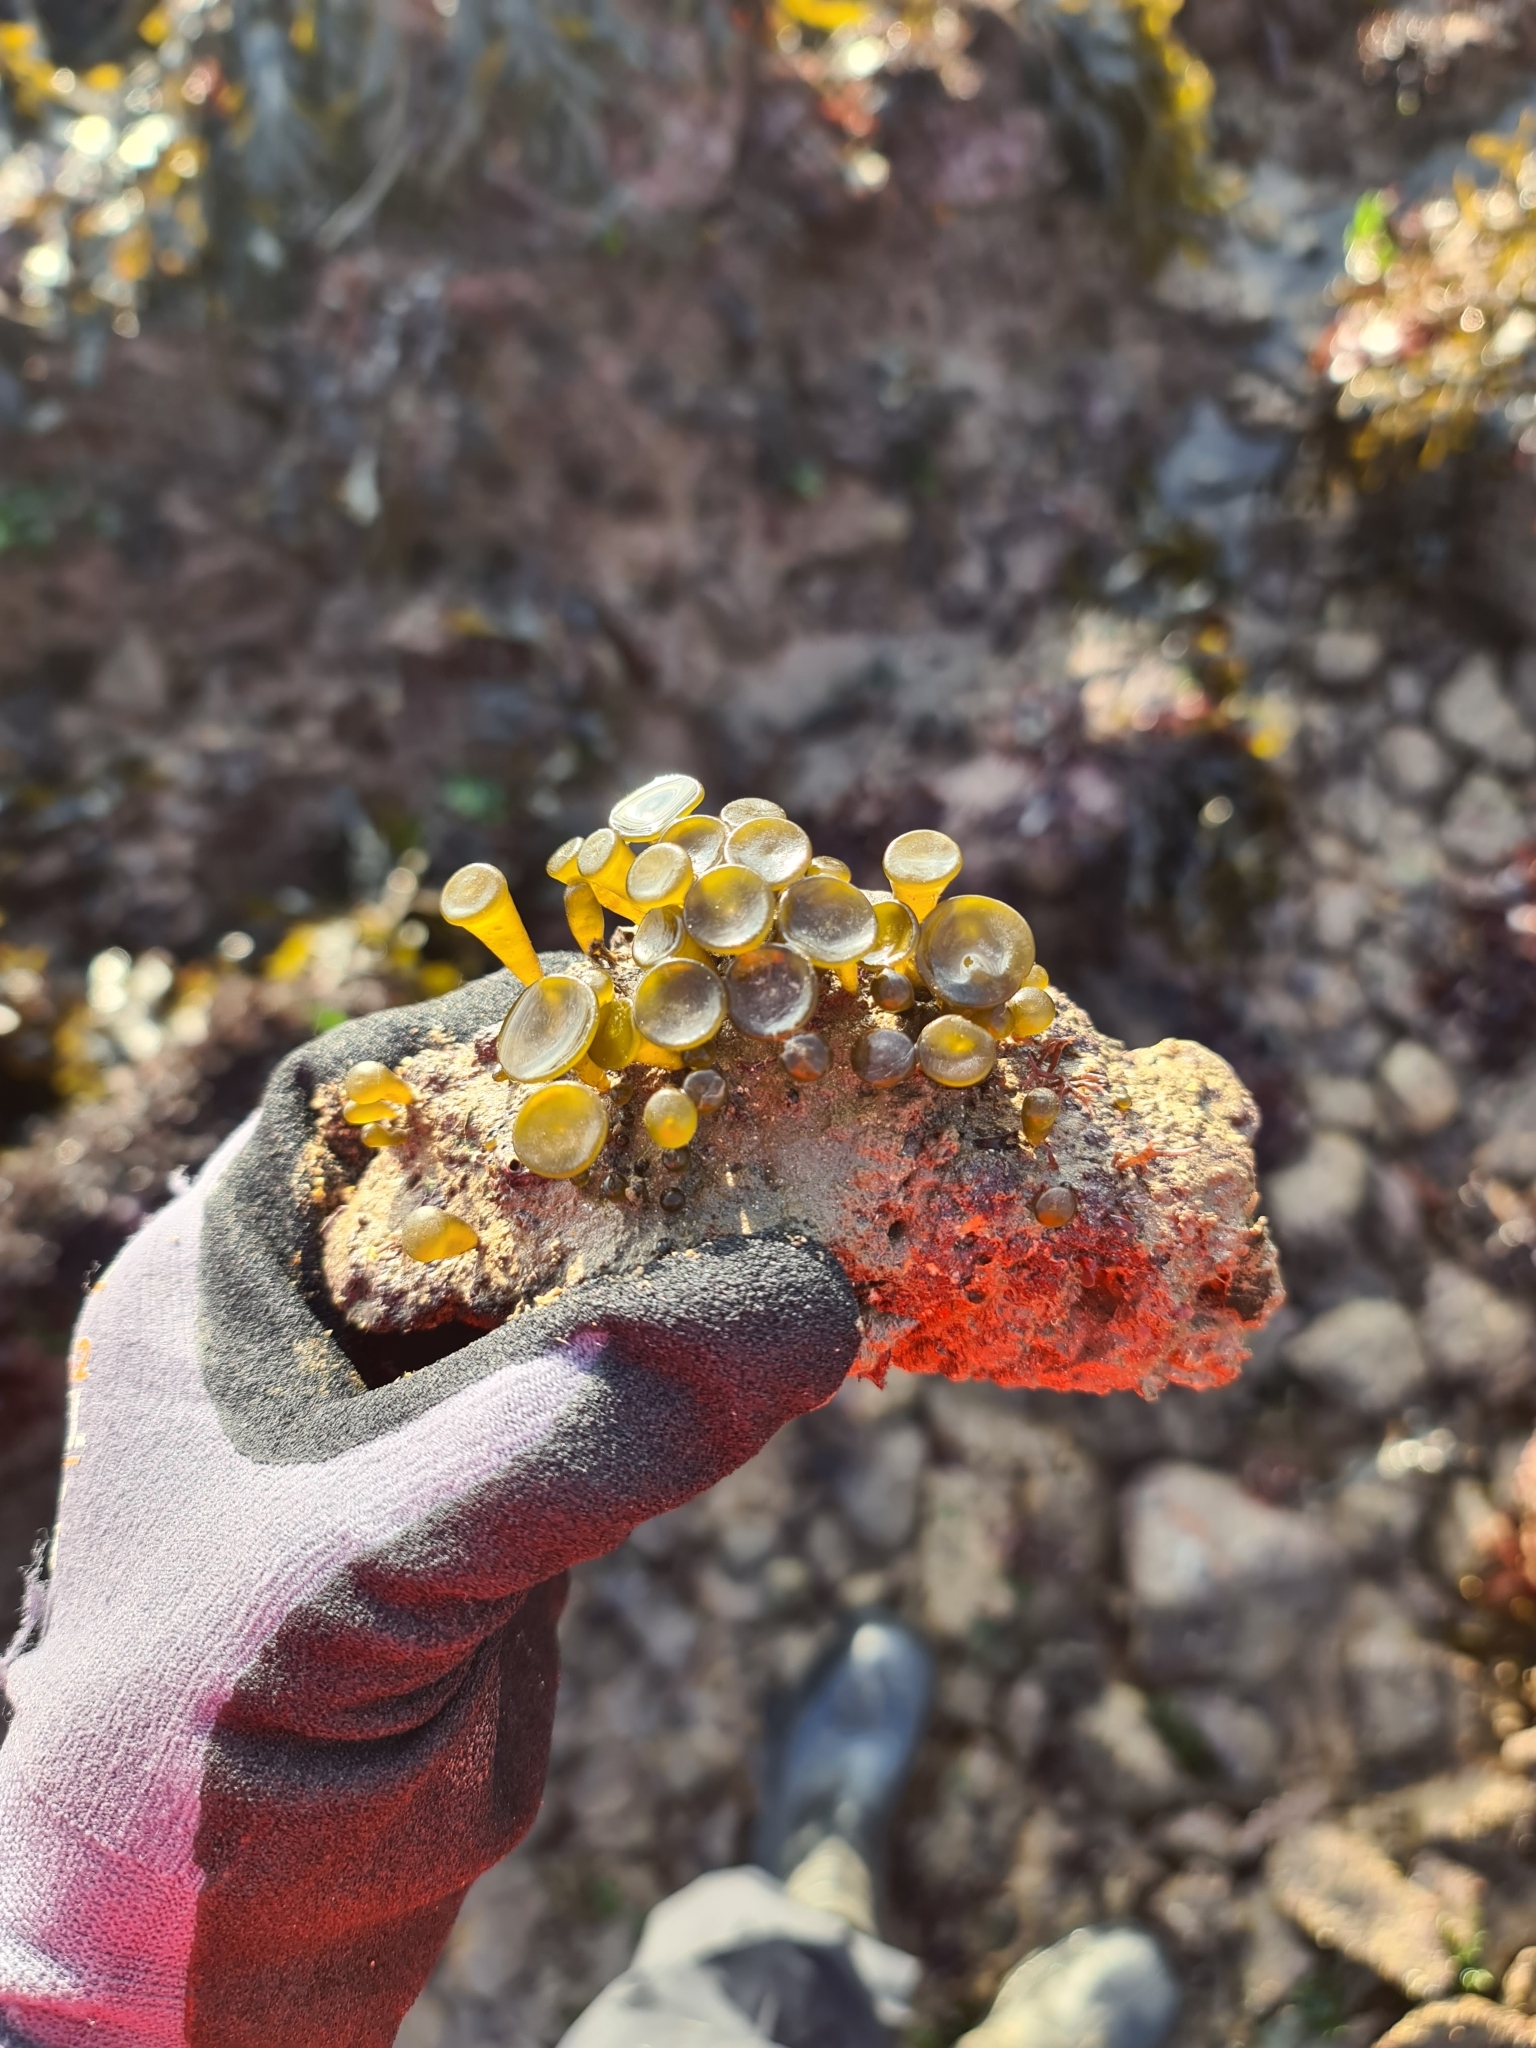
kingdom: Chromista
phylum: Ochrophyta
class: Phaeophyceae
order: Fucales
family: Himanthaliaceae
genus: Himanthalia
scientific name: Himanthalia elongata
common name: Sea-thong
